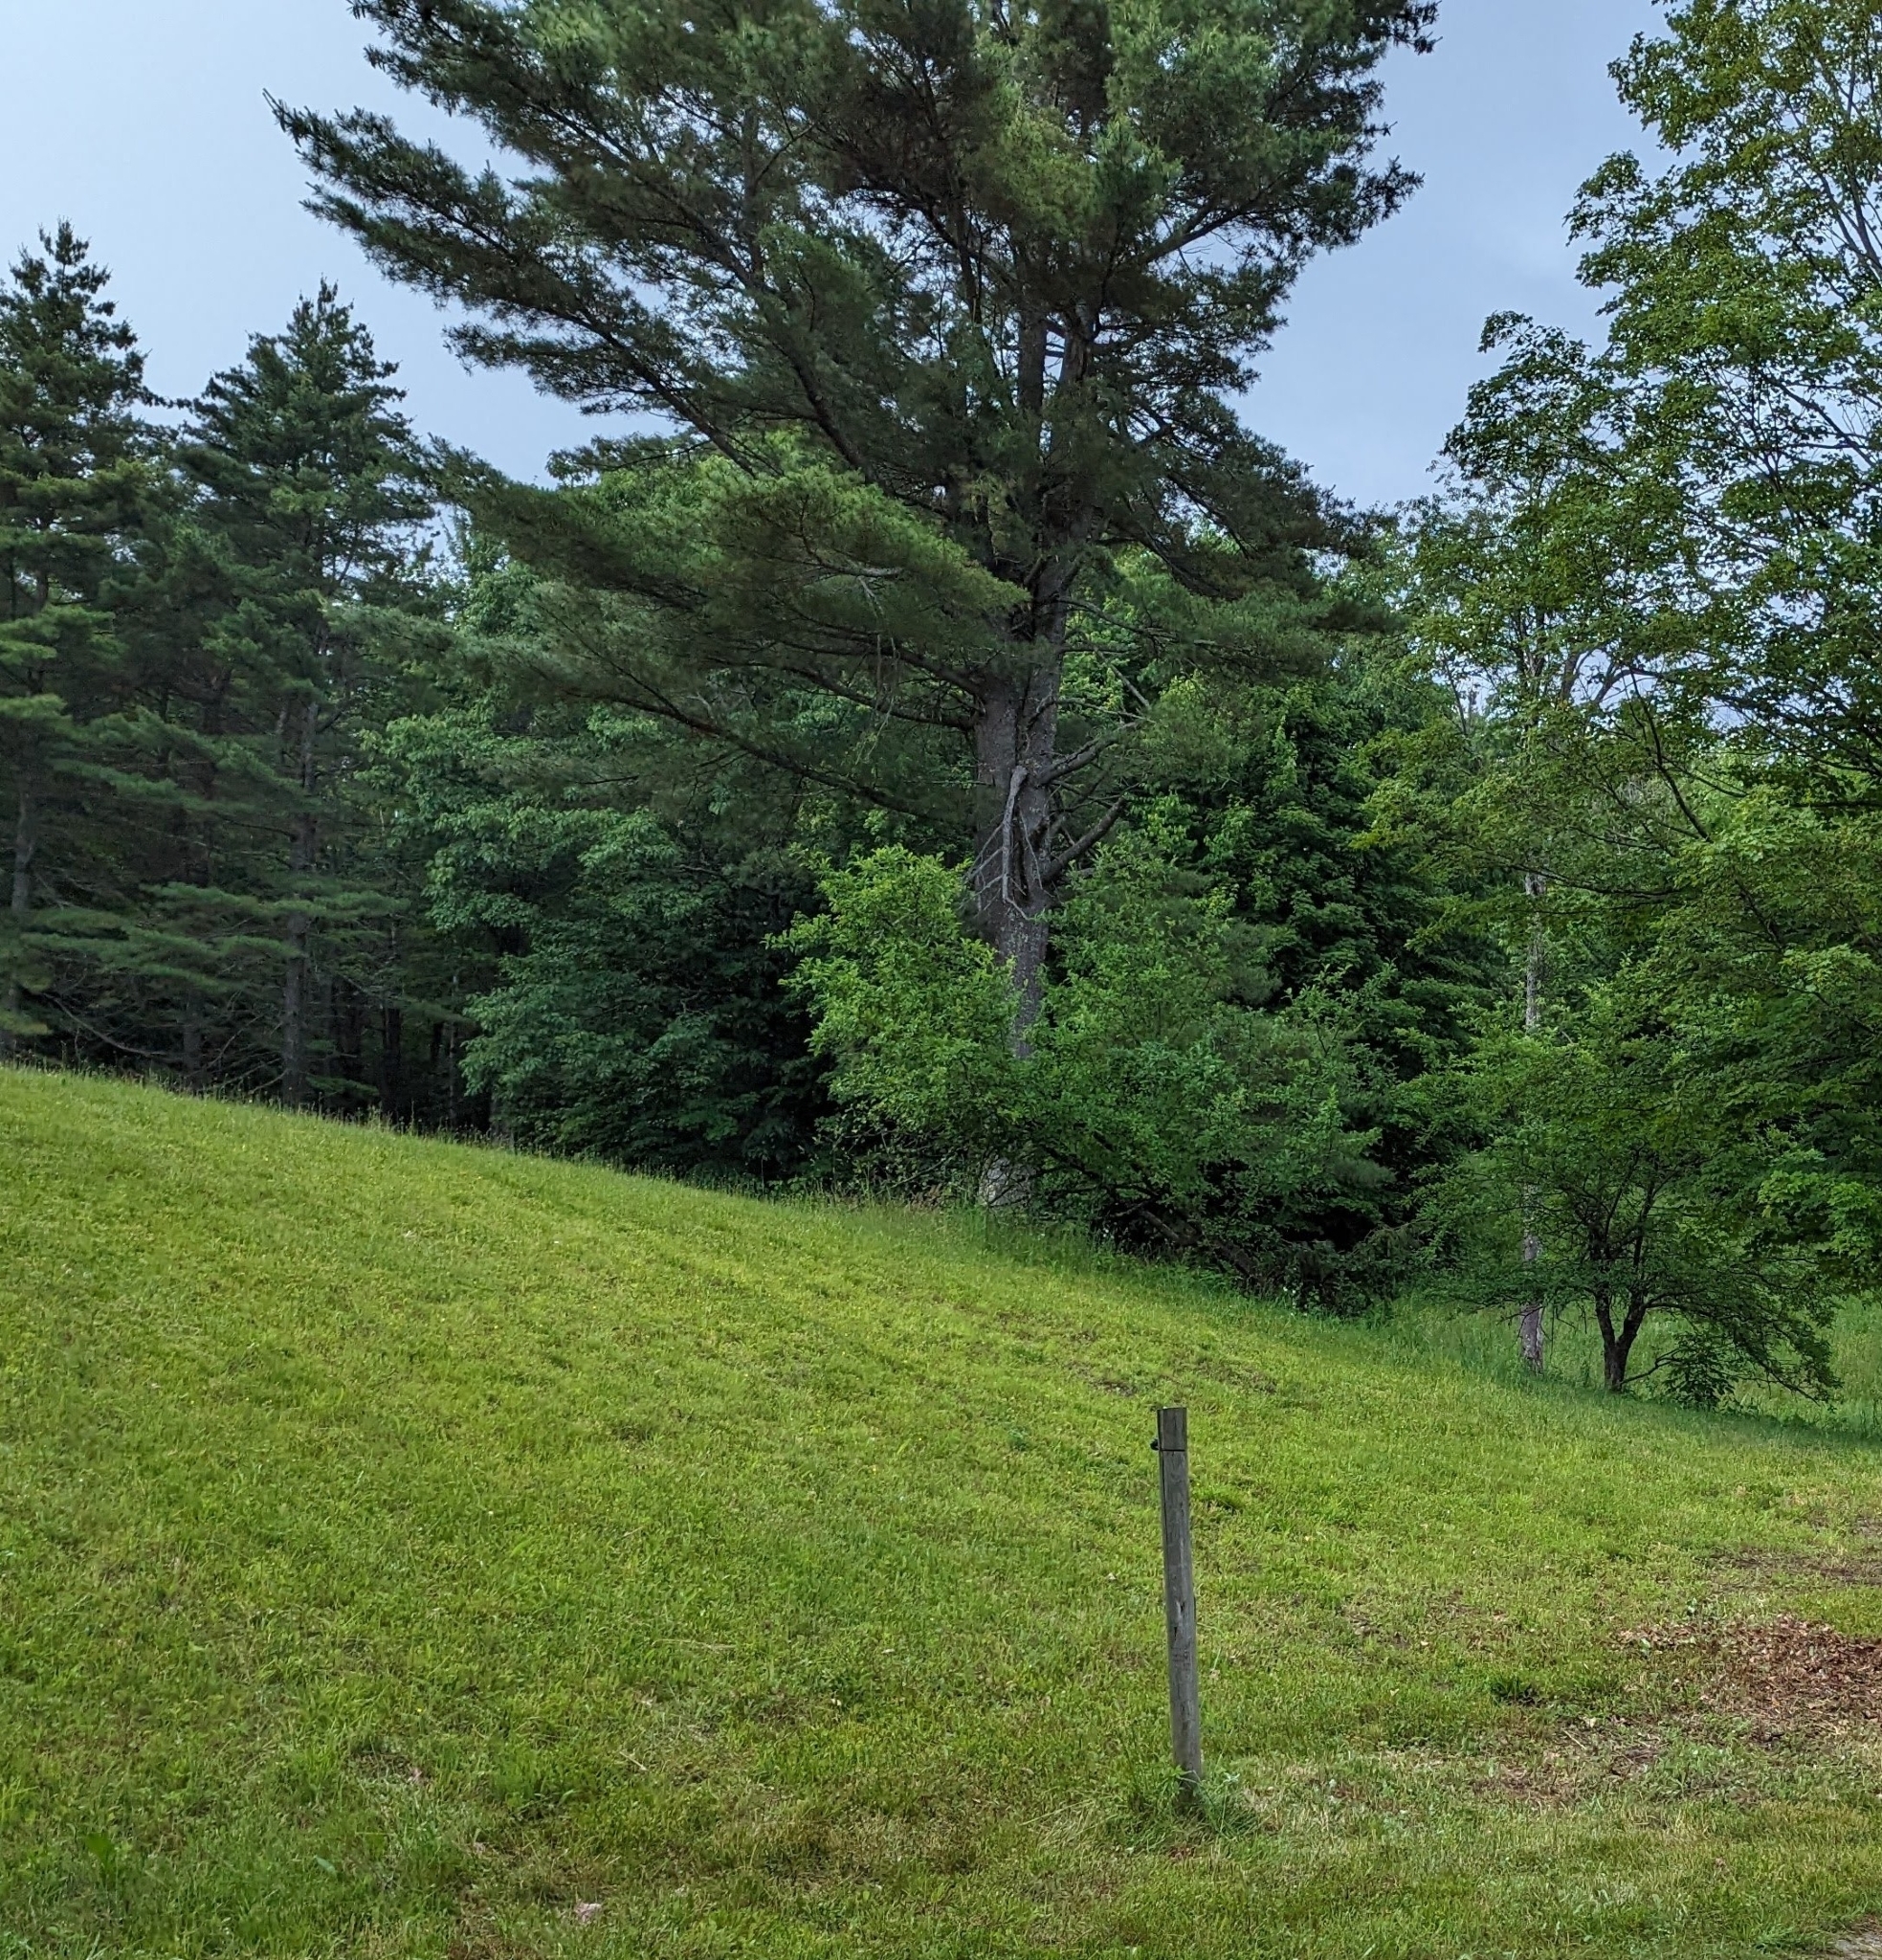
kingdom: Plantae
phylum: Tracheophyta
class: Pinopsida
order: Pinales
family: Pinaceae
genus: Pinus
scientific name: Pinus strobus
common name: Weymouth pine
